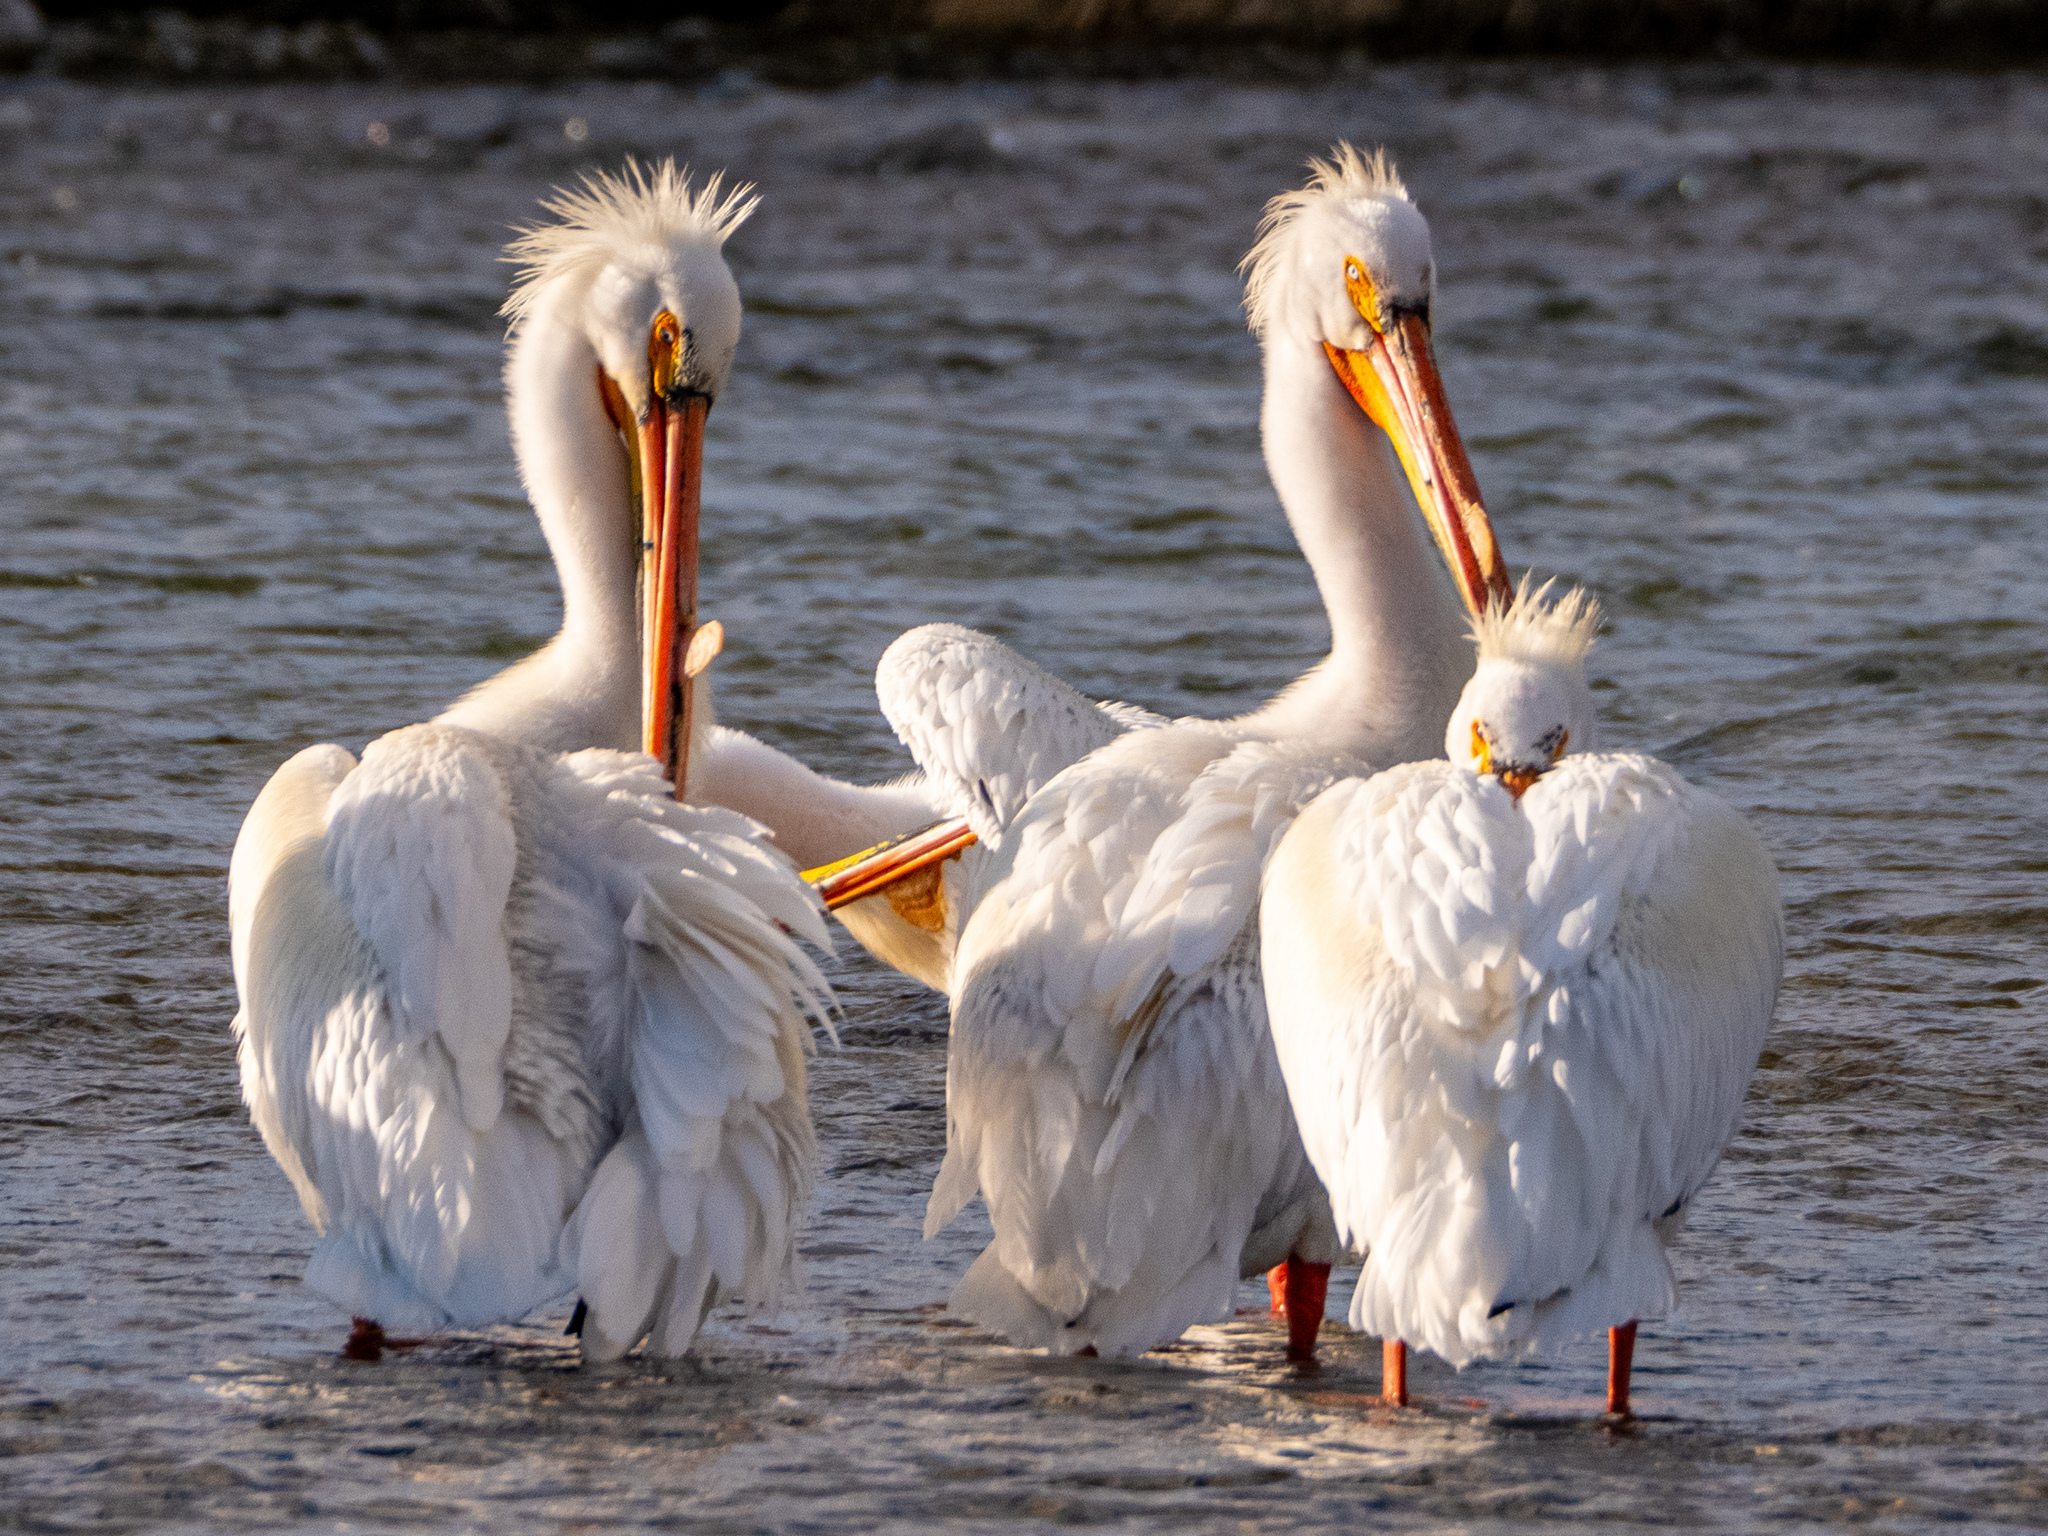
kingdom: Animalia
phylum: Chordata
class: Aves
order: Pelecaniformes
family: Pelecanidae
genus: Pelecanus
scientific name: Pelecanus erythrorhynchos
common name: American white pelican
